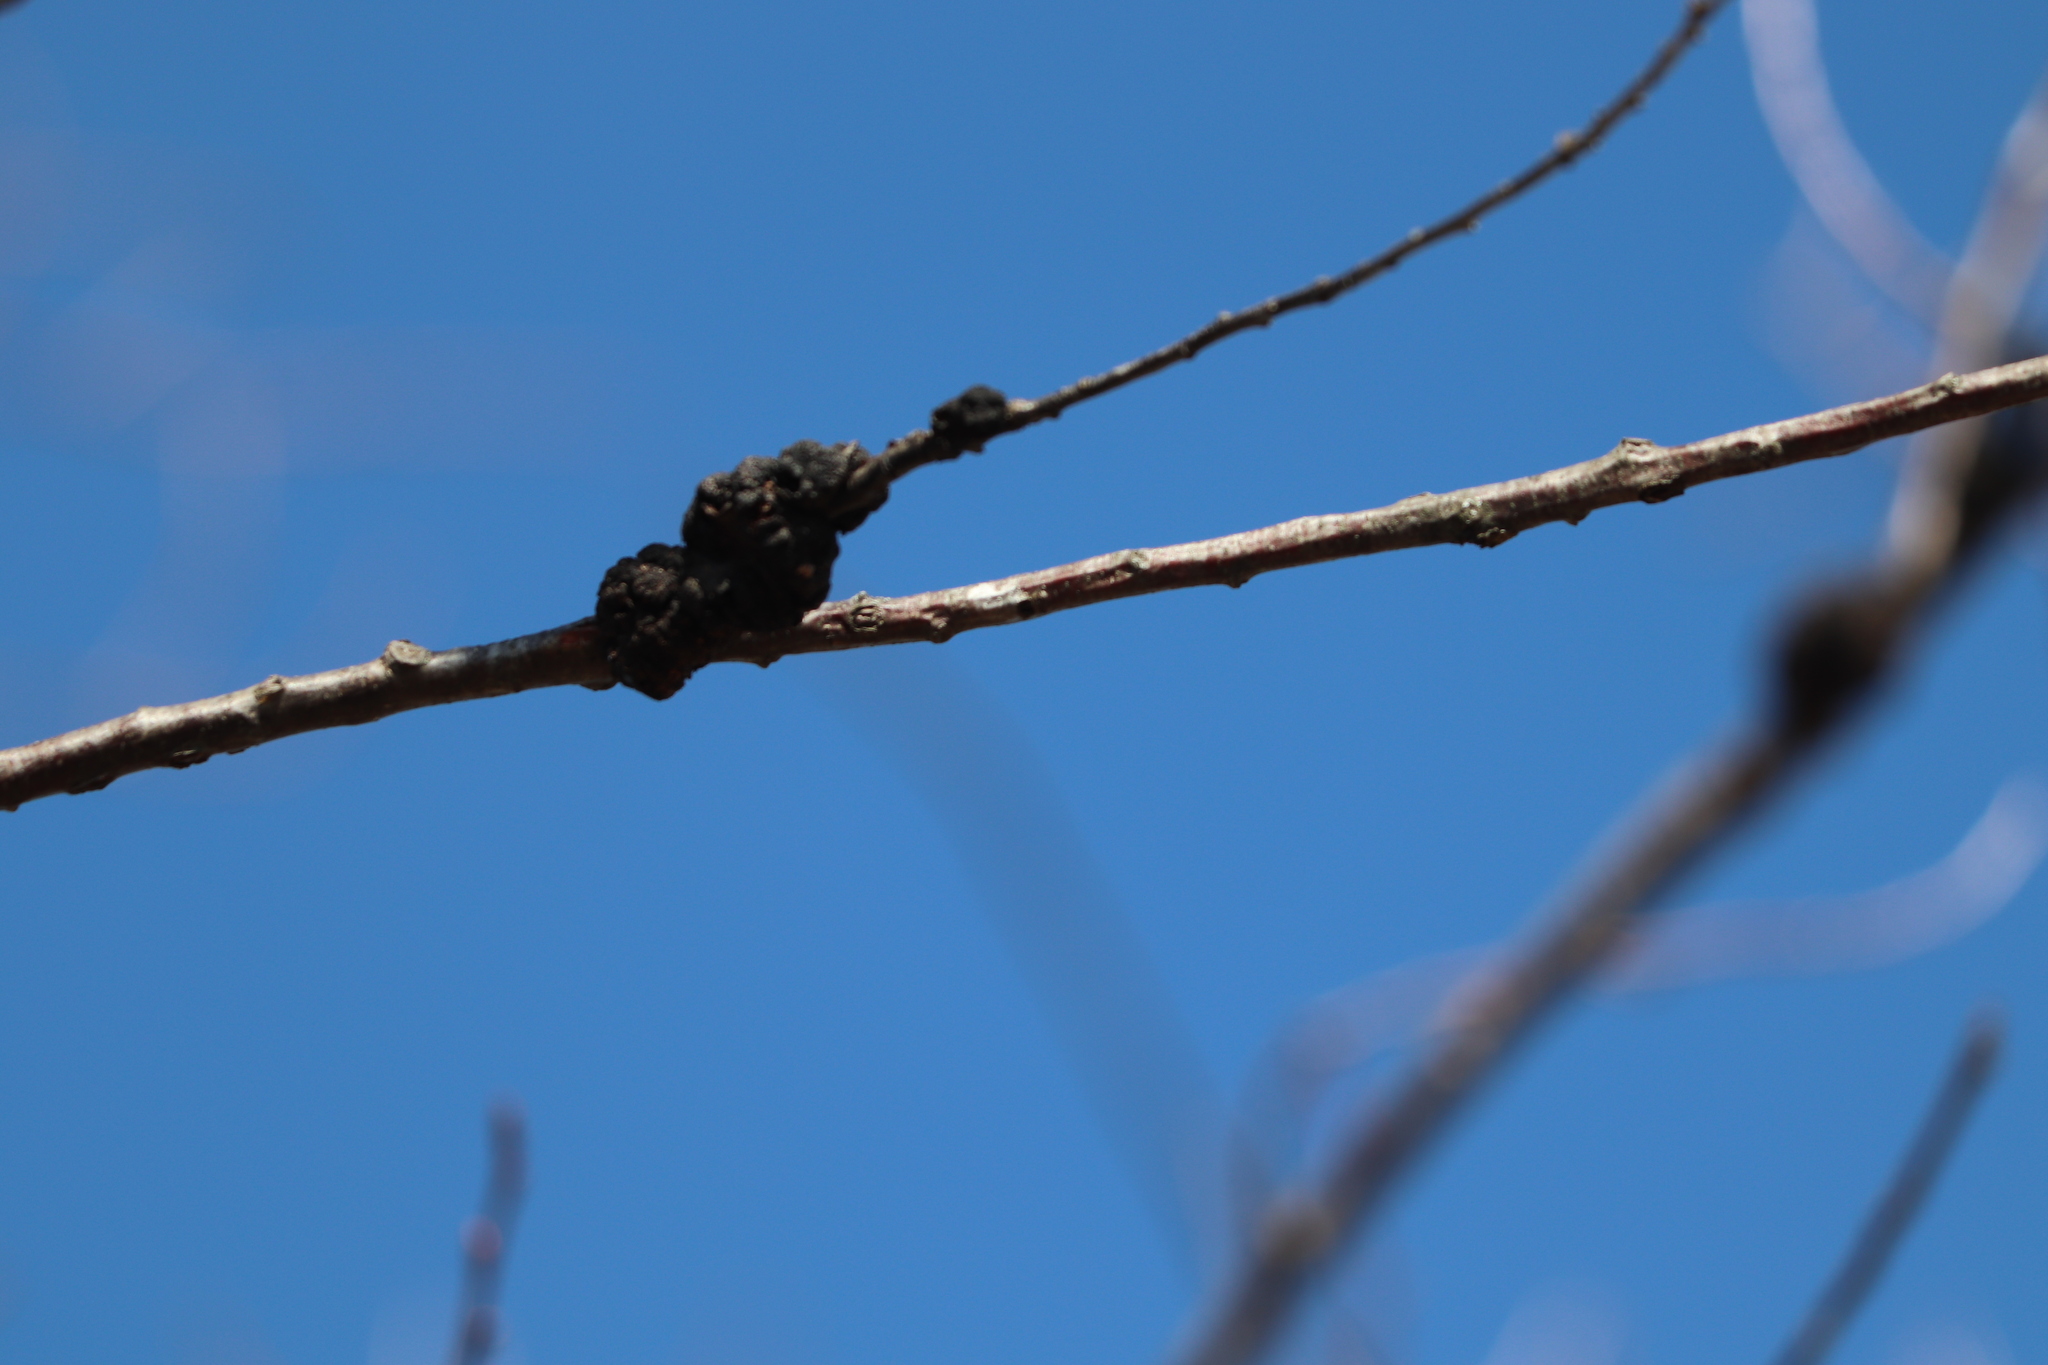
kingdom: Fungi
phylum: Ascomycota
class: Dothideomycetes
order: Venturiales
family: Venturiaceae
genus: Apiosporina
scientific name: Apiosporina morbosa
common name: Black knot
